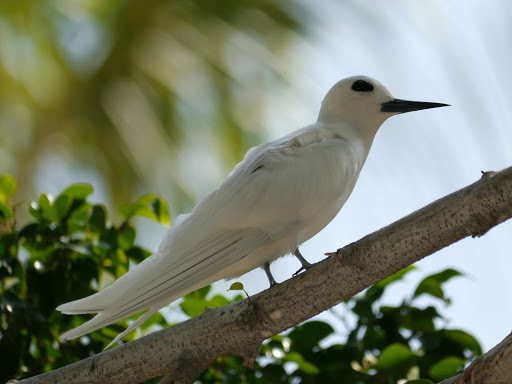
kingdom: Animalia
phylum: Chordata
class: Aves
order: Charadriiformes
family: Laridae
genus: Gygis
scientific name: Gygis alba
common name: White tern
